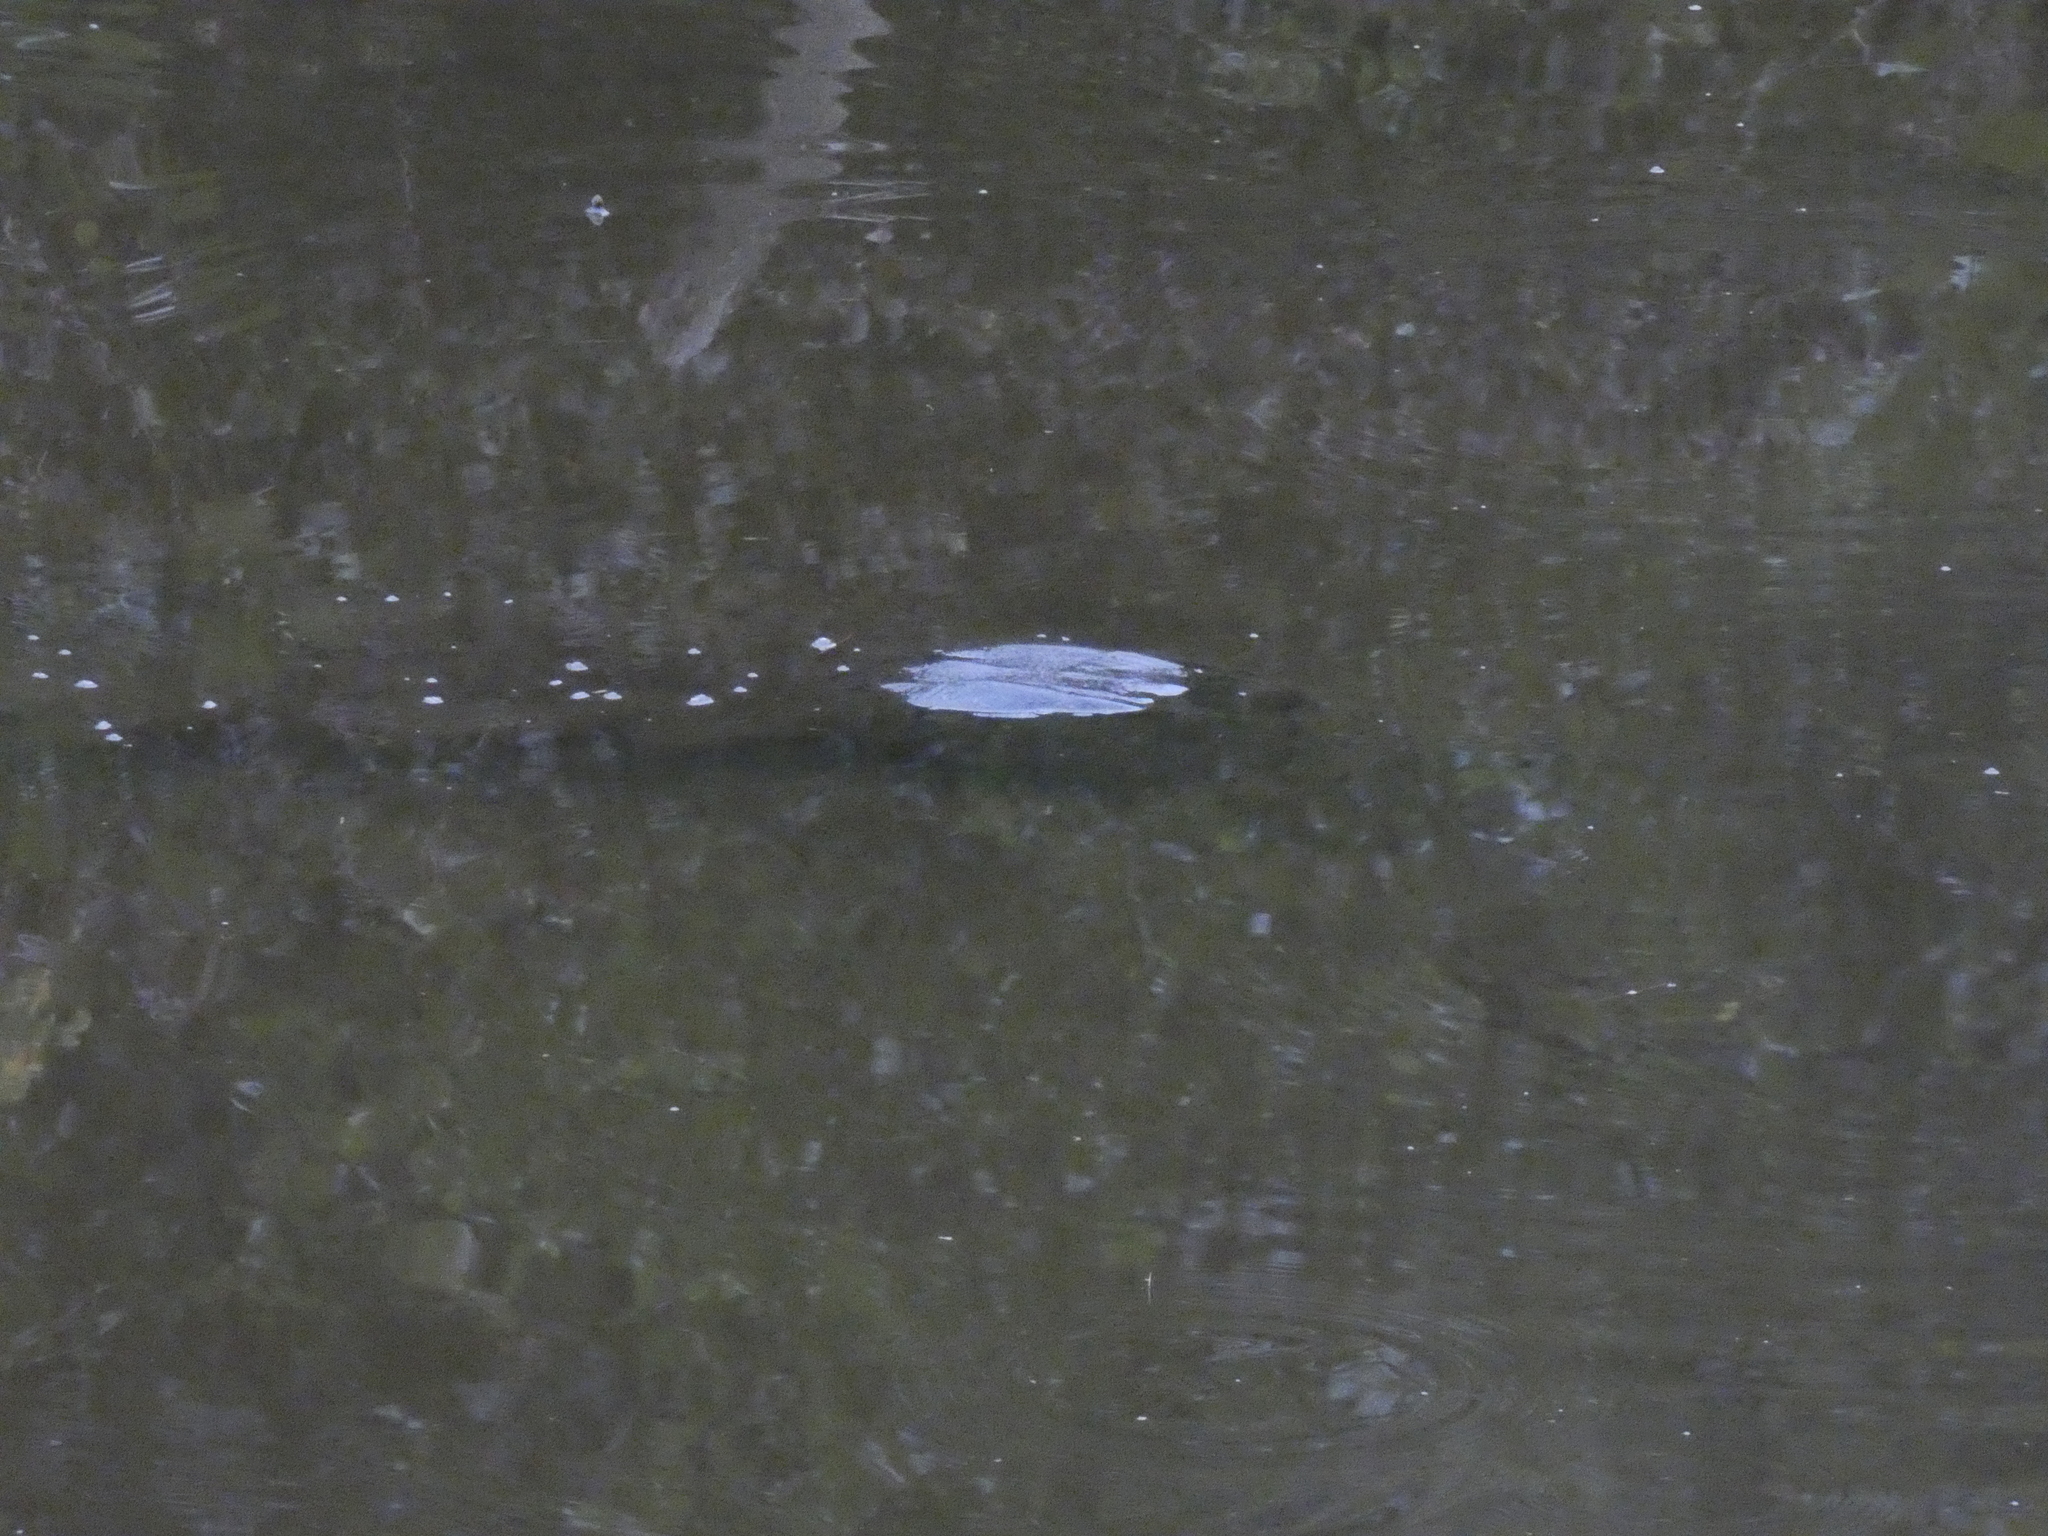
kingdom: Animalia
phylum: Chordata
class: Testudines
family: Chelydridae
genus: Chelydra
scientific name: Chelydra serpentina
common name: Common snapping turtle
